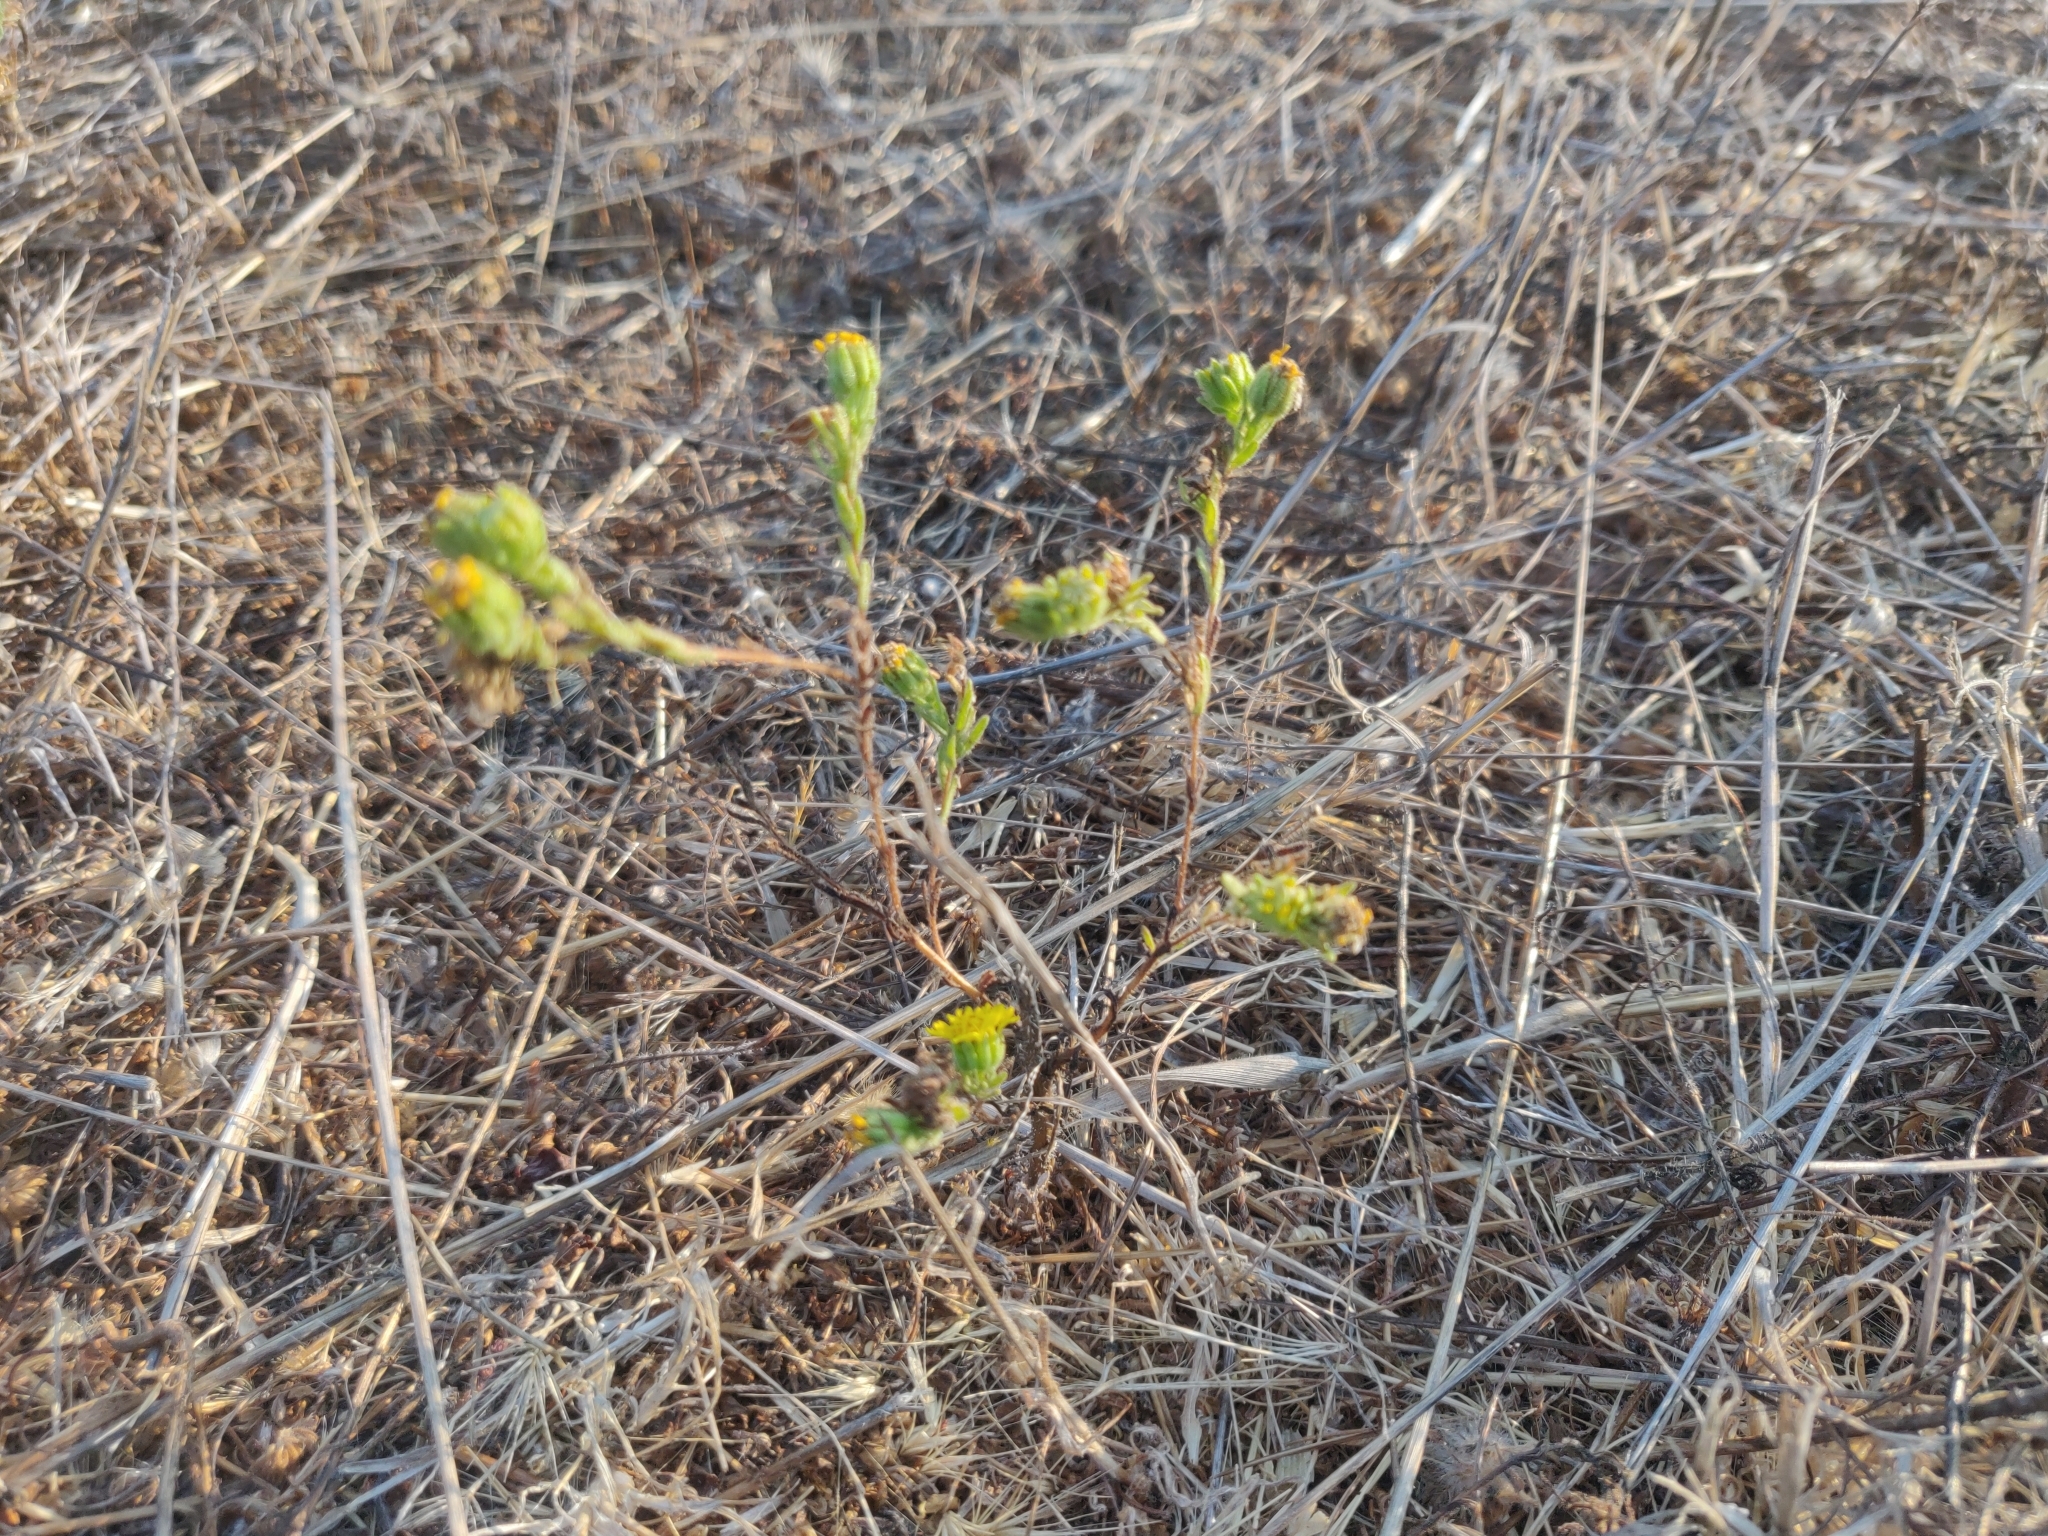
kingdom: Plantae
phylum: Tracheophyta
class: Magnoliopsida
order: Asterales
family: Asteraceae
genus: Deinandra
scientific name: Deinandra corymbosa
